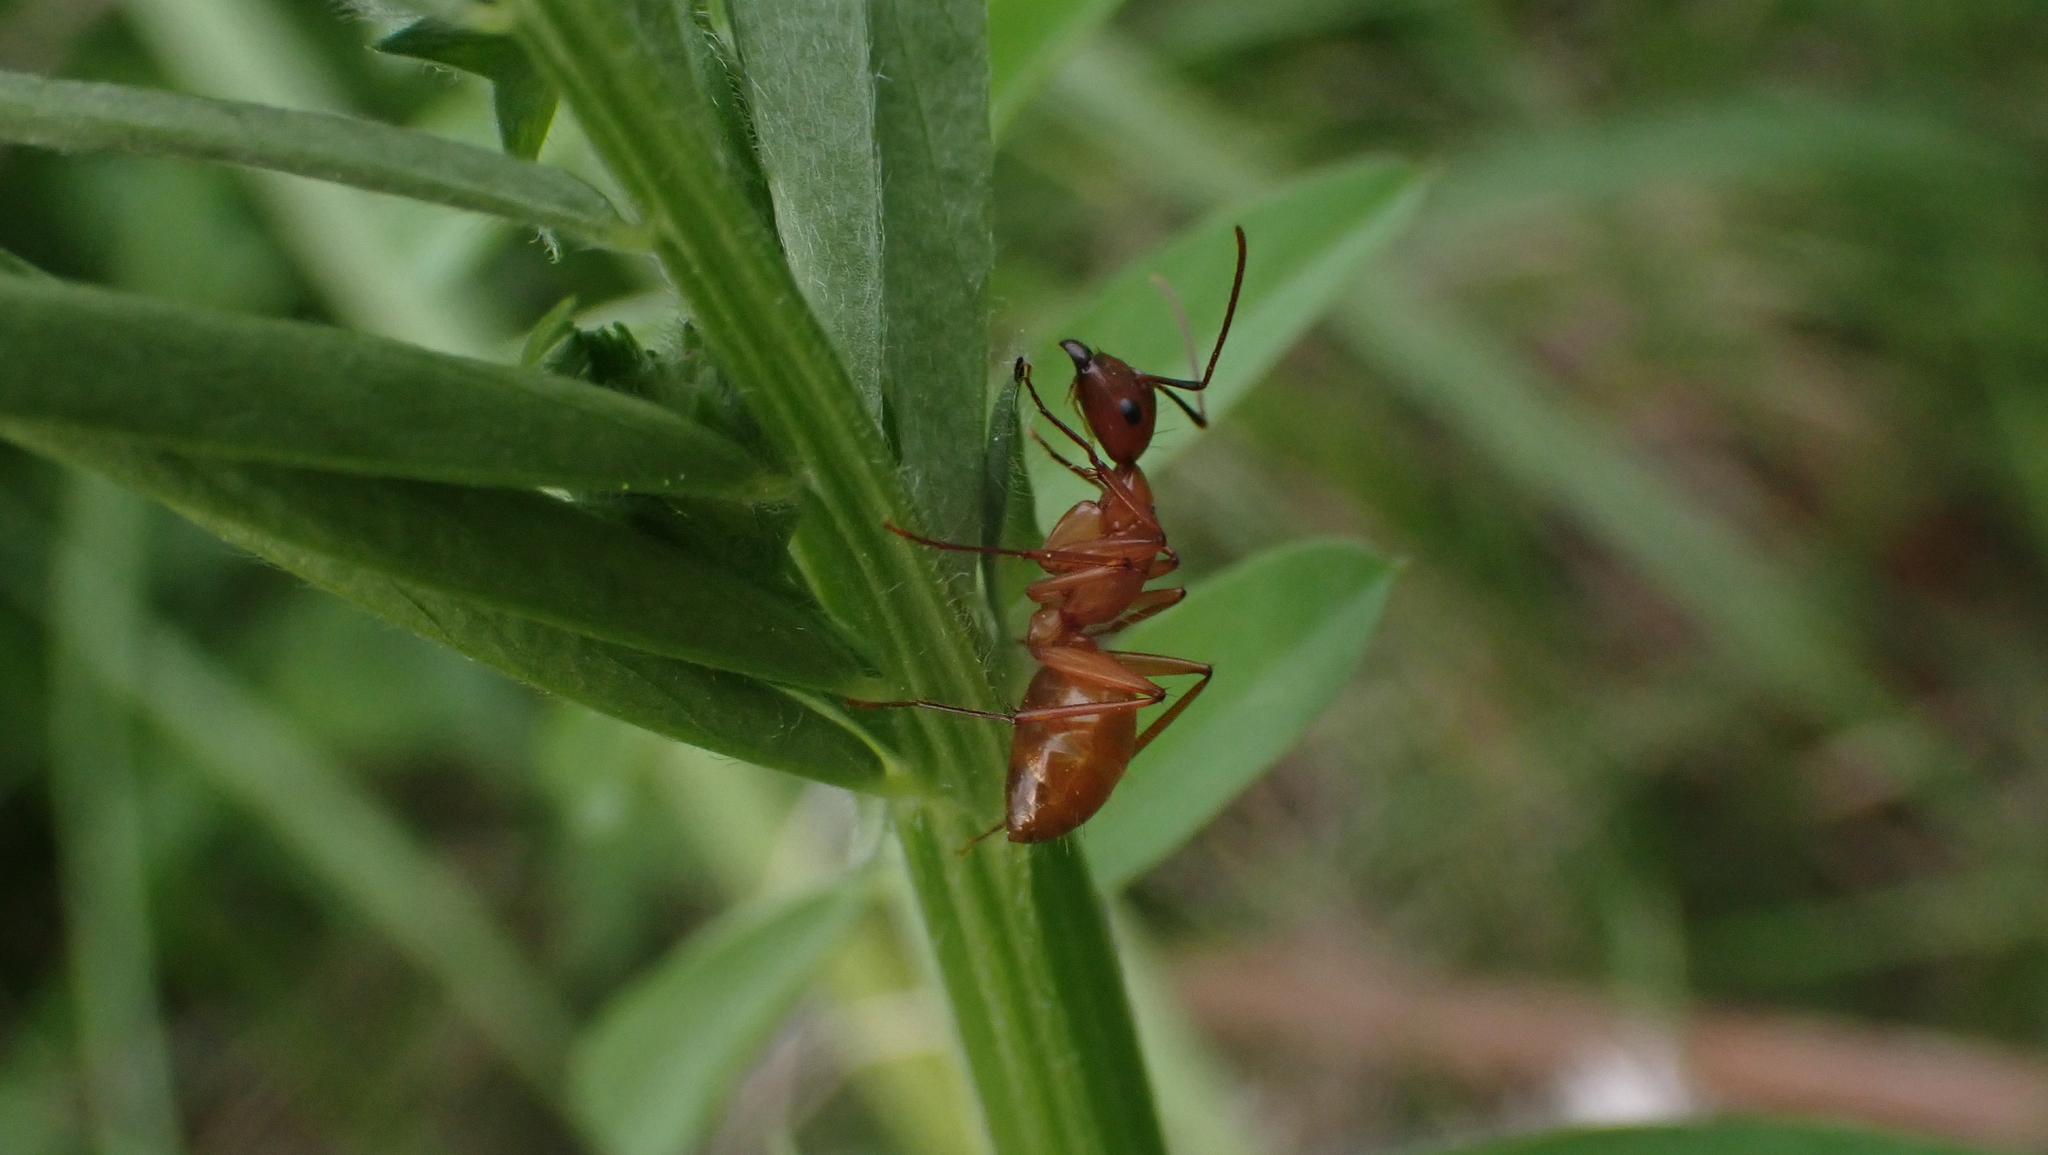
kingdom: Animalia
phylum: Arthropoda
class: Insecta
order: Hymenoptera
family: Formicidae
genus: Camponotus
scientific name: Camponotus castaneus
